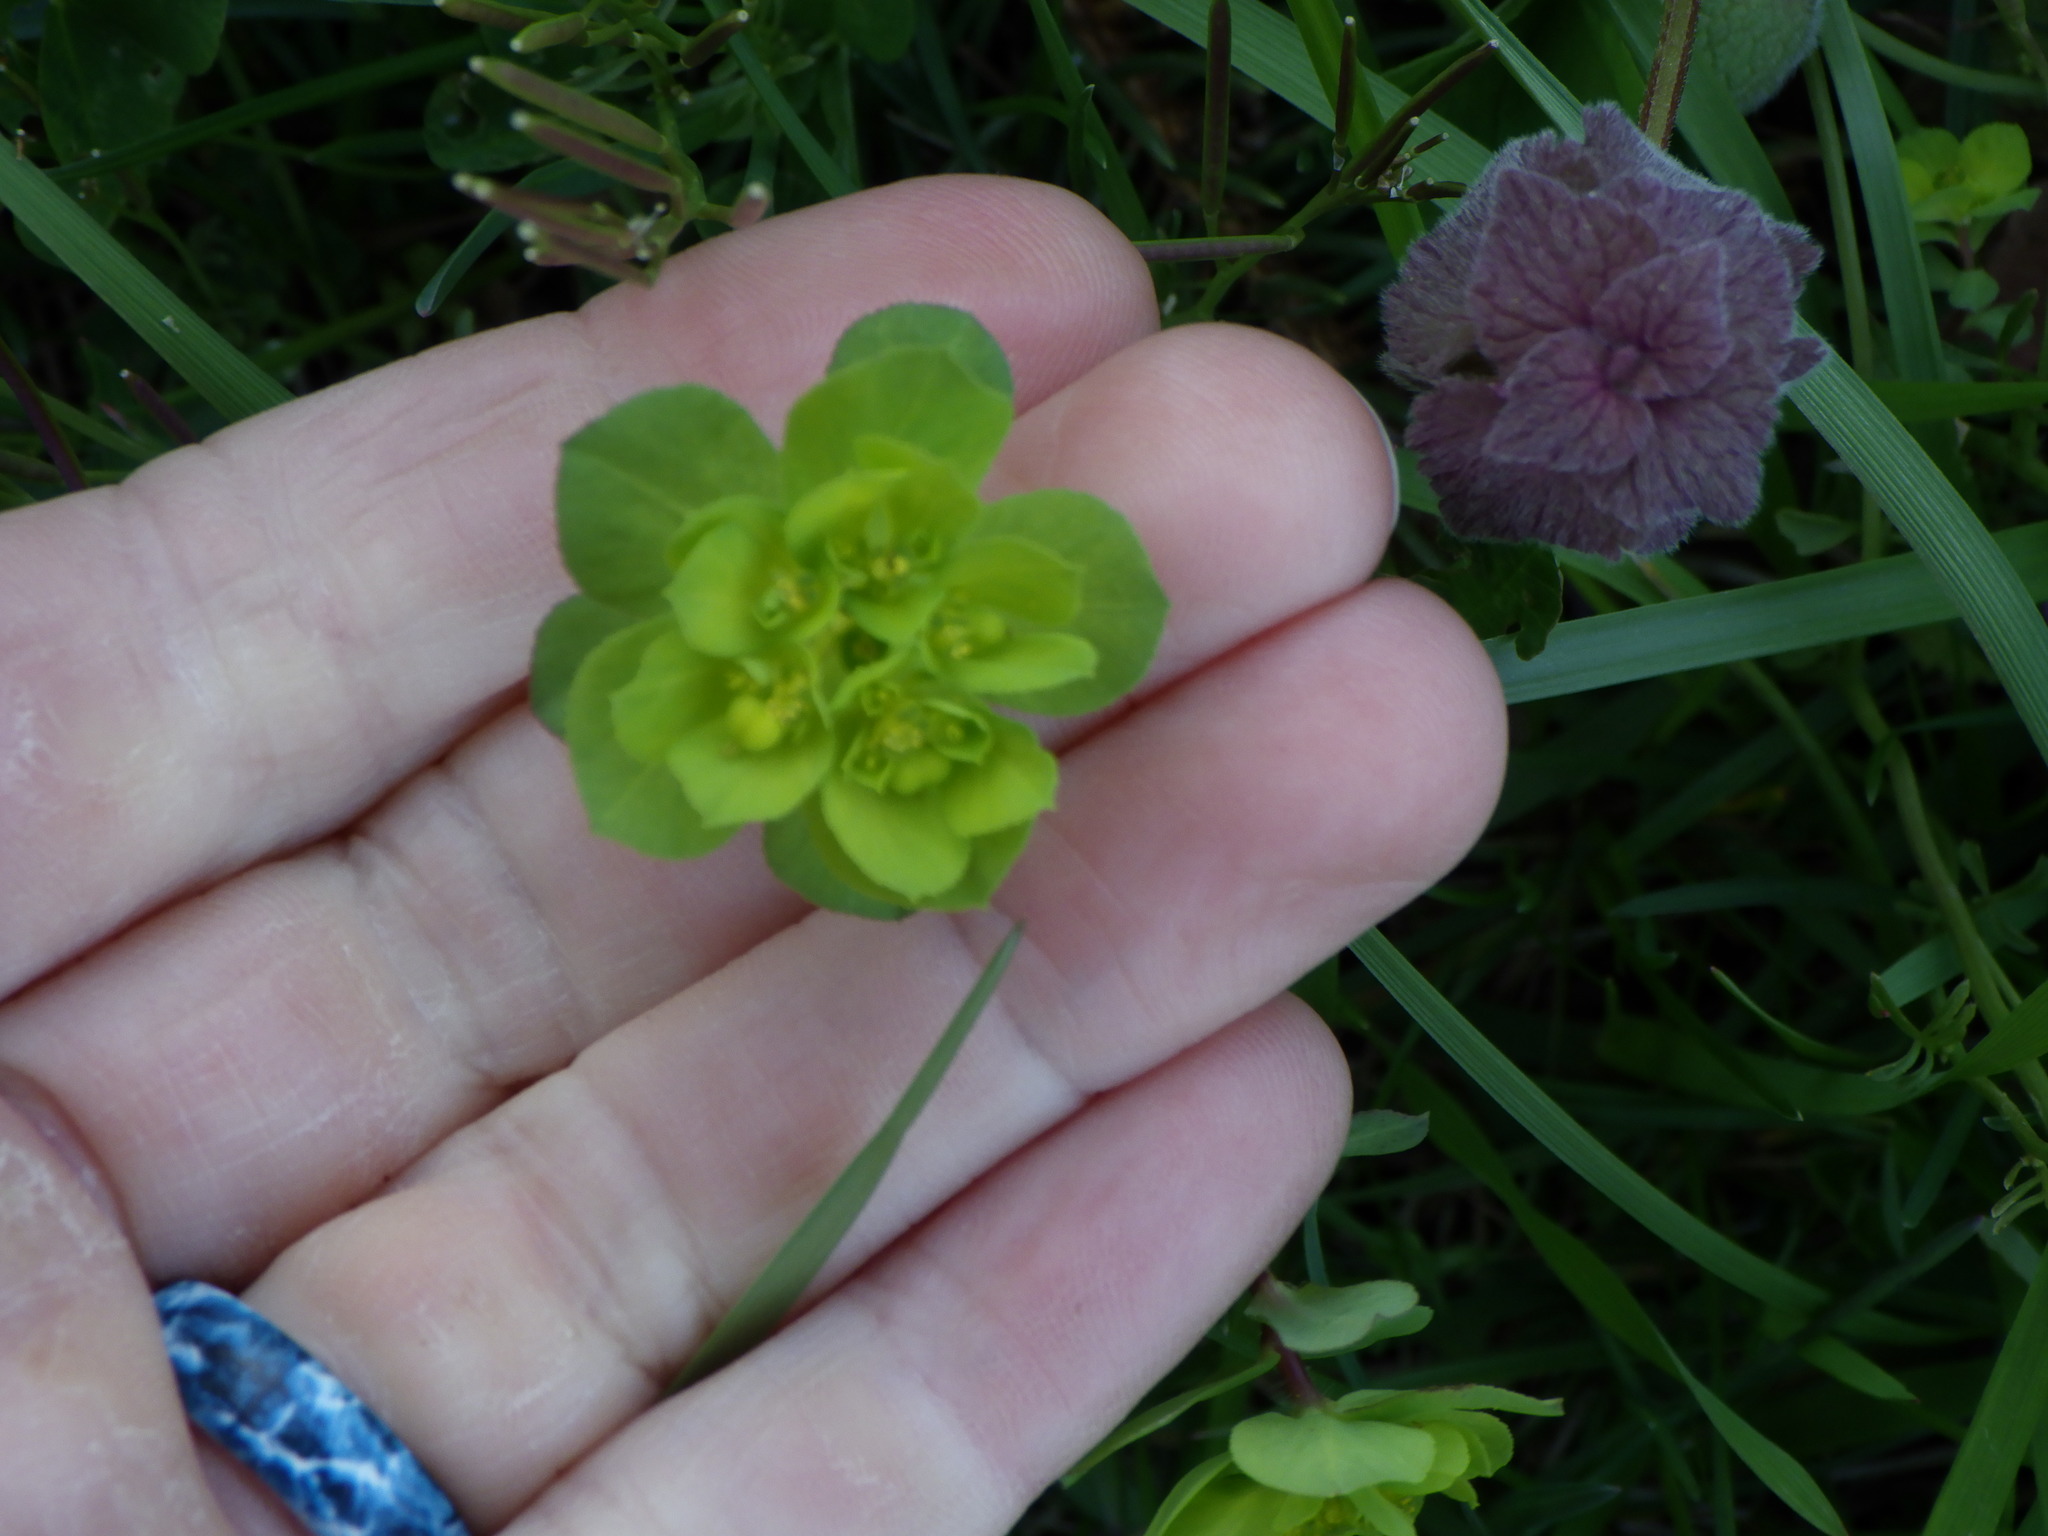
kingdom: Plantae
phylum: Tracheophyta
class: Magnoliopsida
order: Malpighiales
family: Euphorbiaceae
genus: Euphorbia
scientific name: Euphorbia helioscopia
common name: Sun spurge
